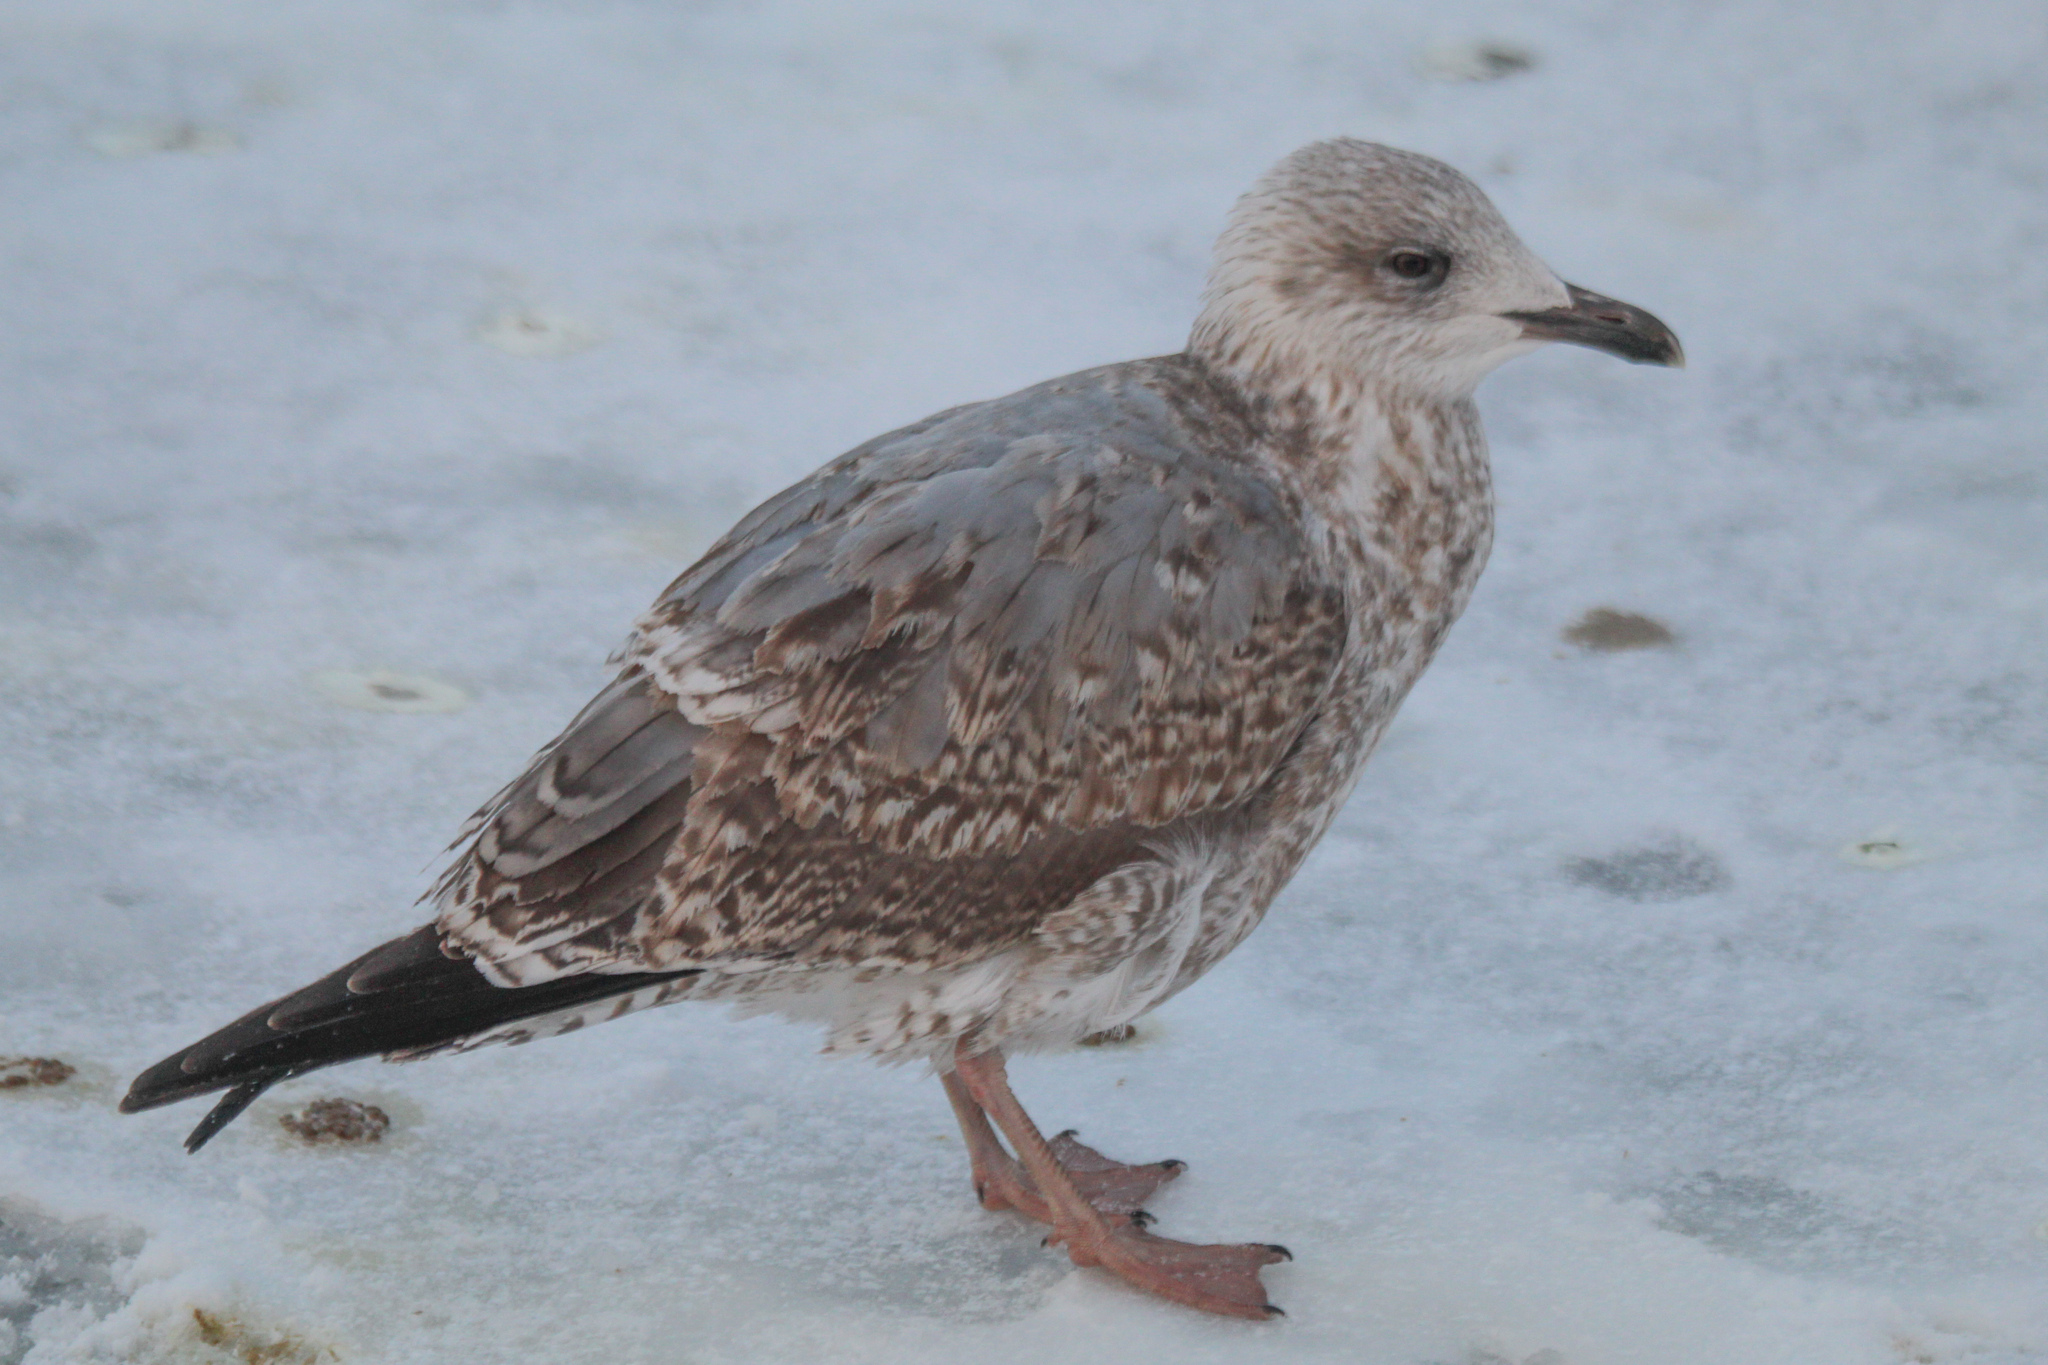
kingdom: Animalia
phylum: Chordata
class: Aves
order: Charadriiformes
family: Laridae
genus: Larus
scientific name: Larus argentatus
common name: Herring gull
